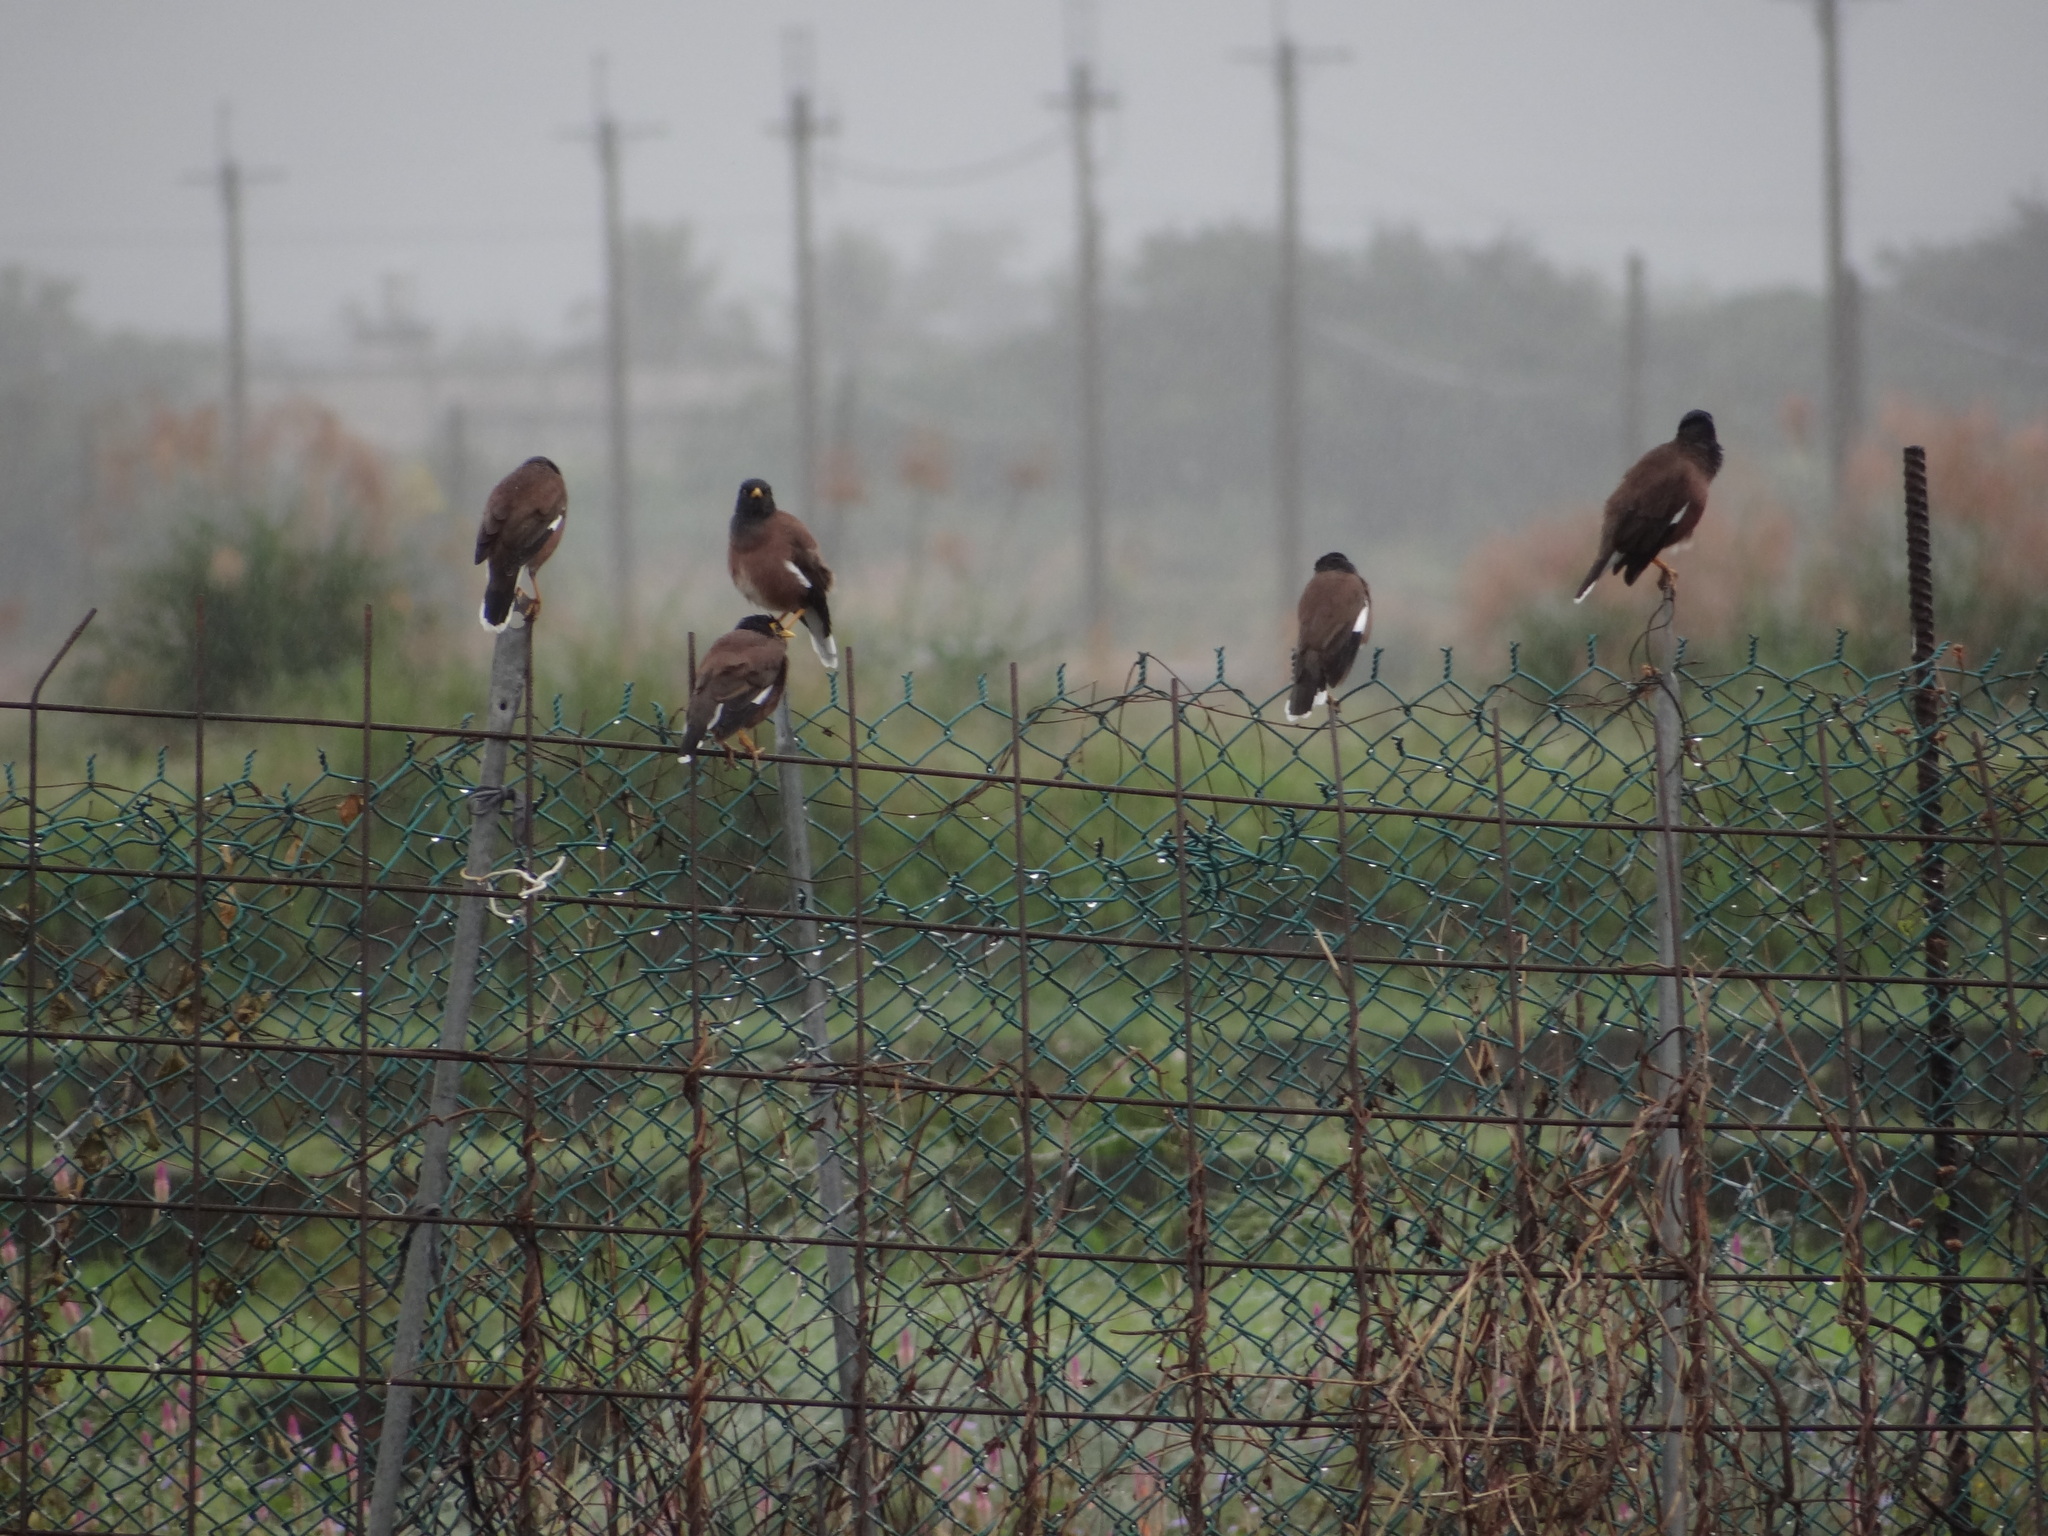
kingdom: Animalia
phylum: Chordata
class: Aves
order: Passeriformes
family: Sturnidae
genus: Acridotheres
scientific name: Acridotheres tristis
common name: Common myna
